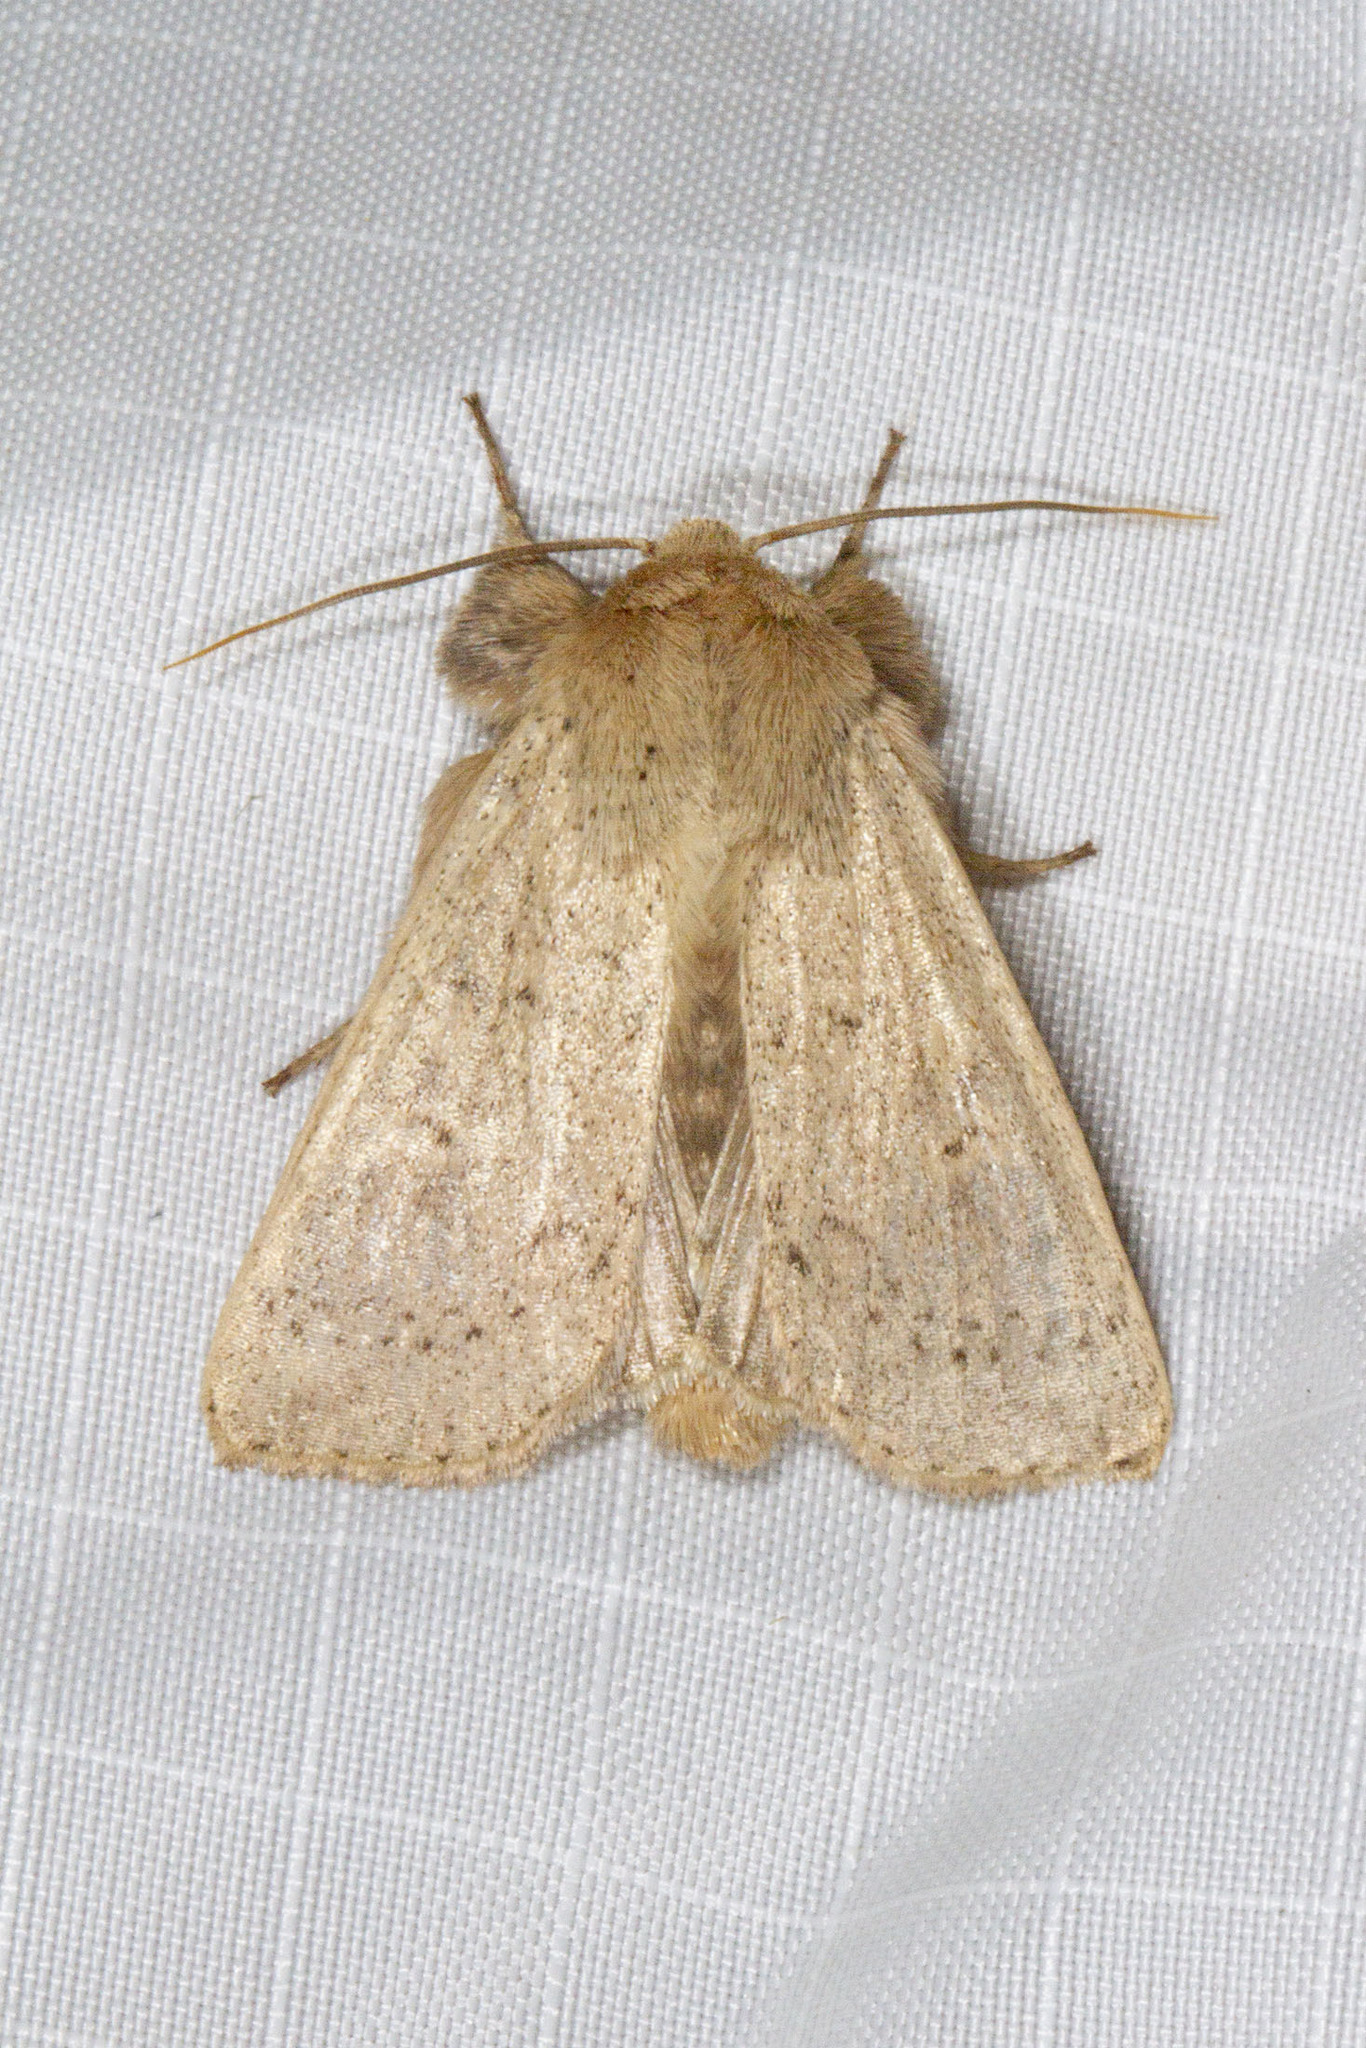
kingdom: Animalia
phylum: Arthropoda
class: Insecta
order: Lepidoptera
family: Noctuidae
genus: Leucania
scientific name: Leucania ursula
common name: Ursula wainscot
